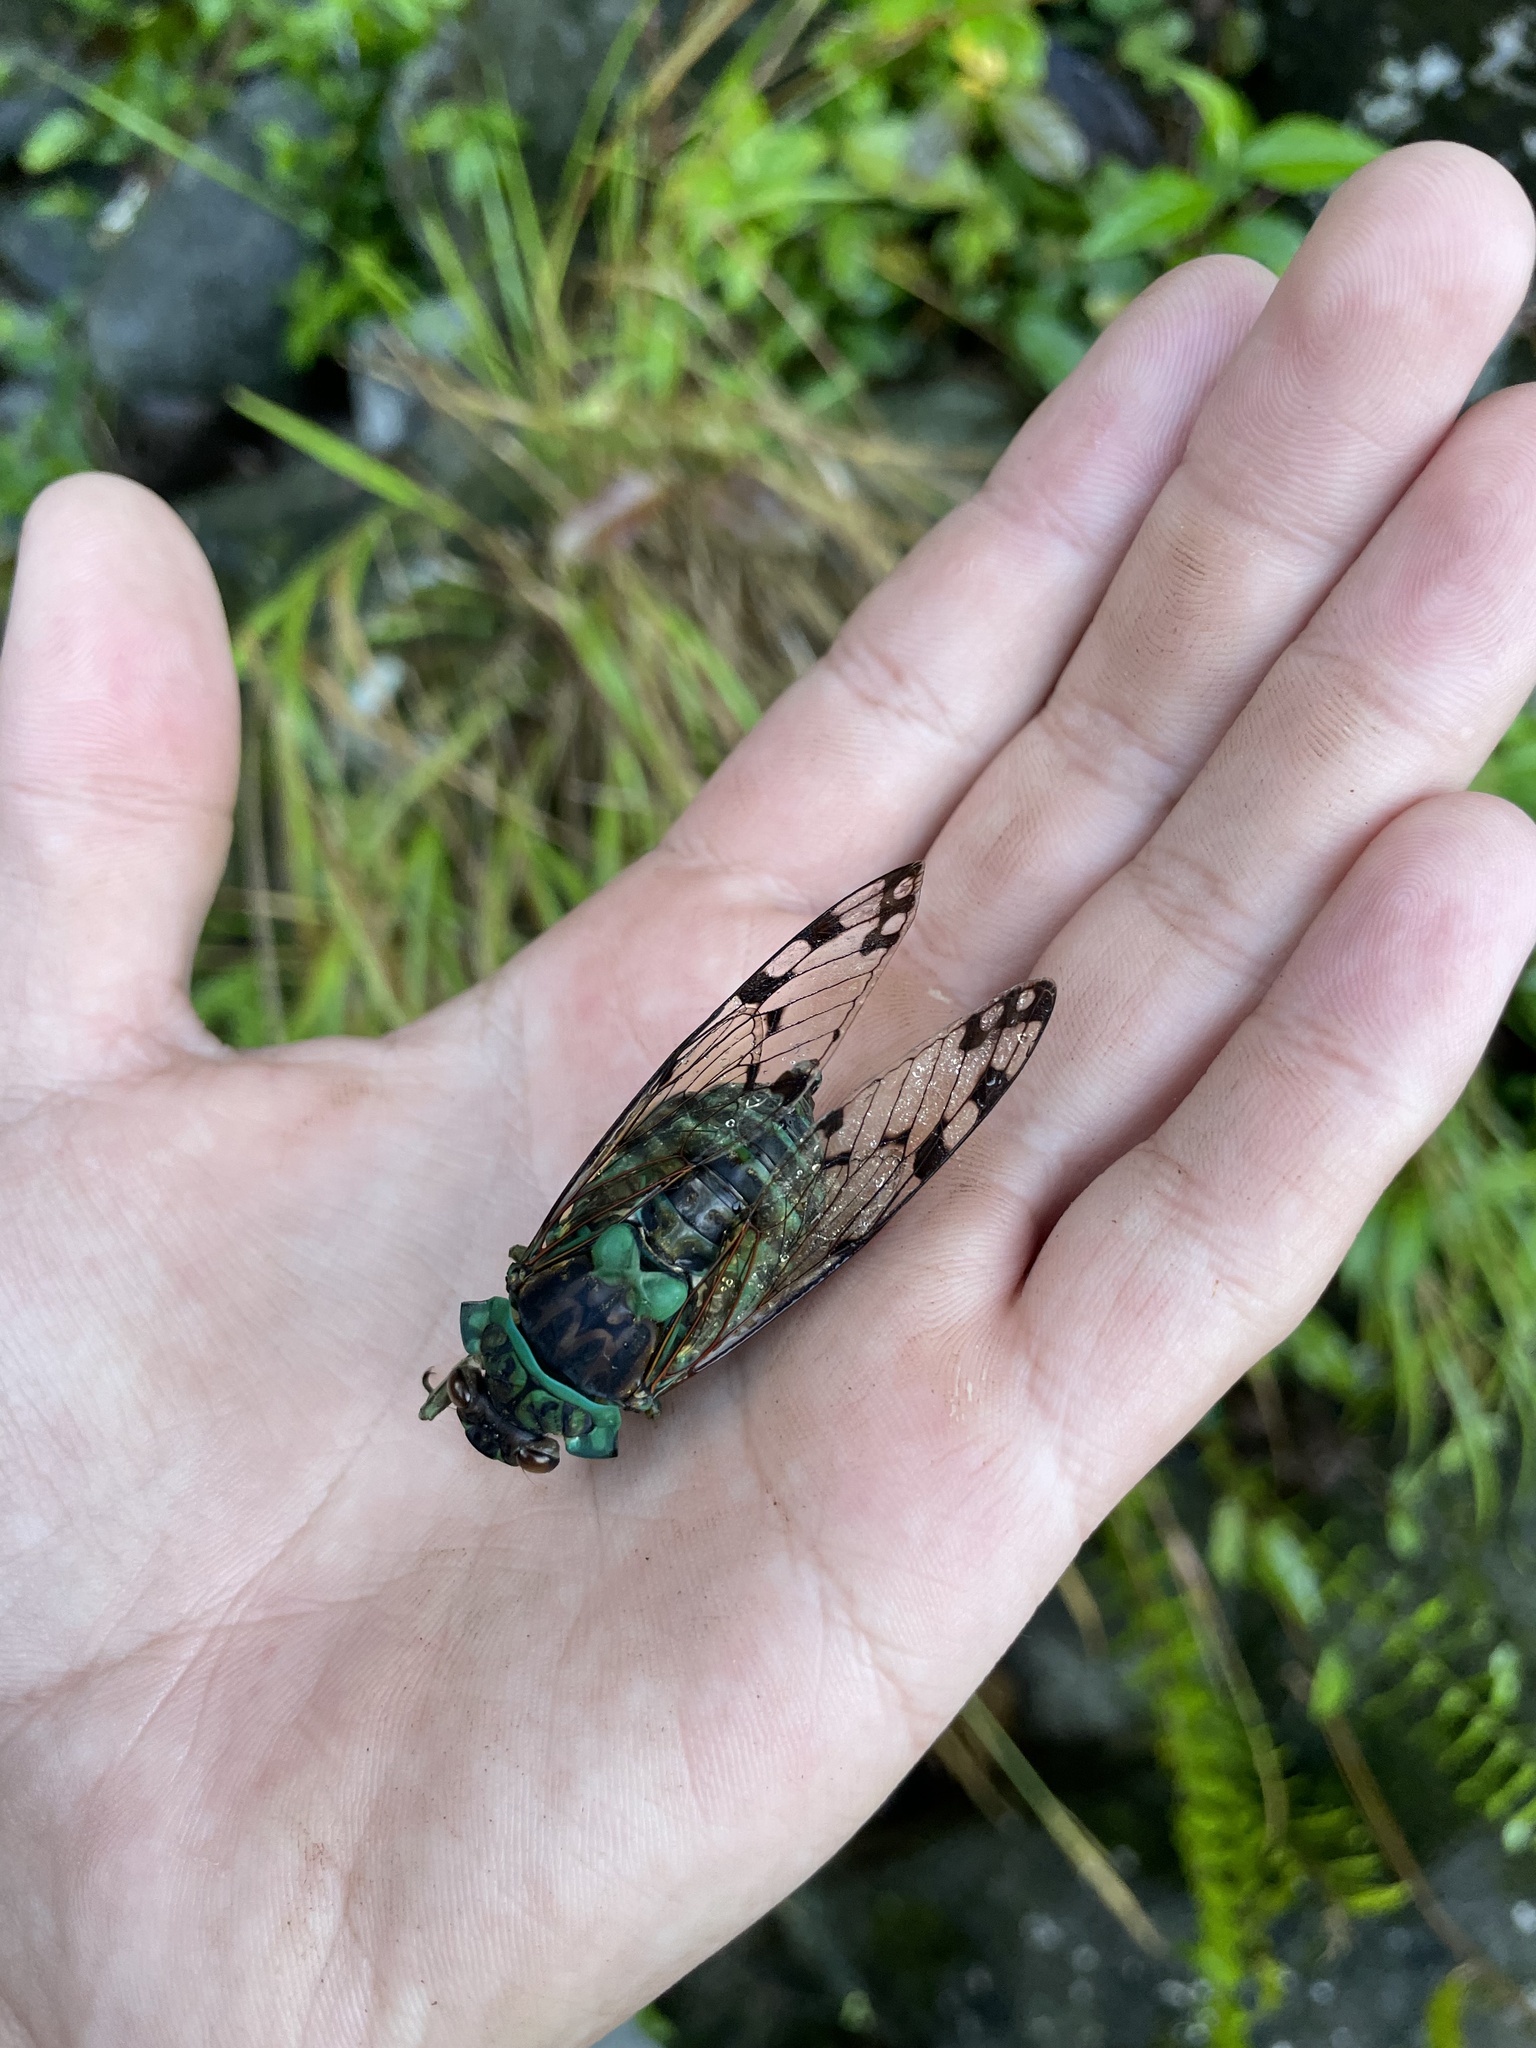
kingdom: Animalia
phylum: Arthropoda
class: Insecta
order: Hemiptera
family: Cicadidae
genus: Zammara
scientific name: Zammara smaragdina
